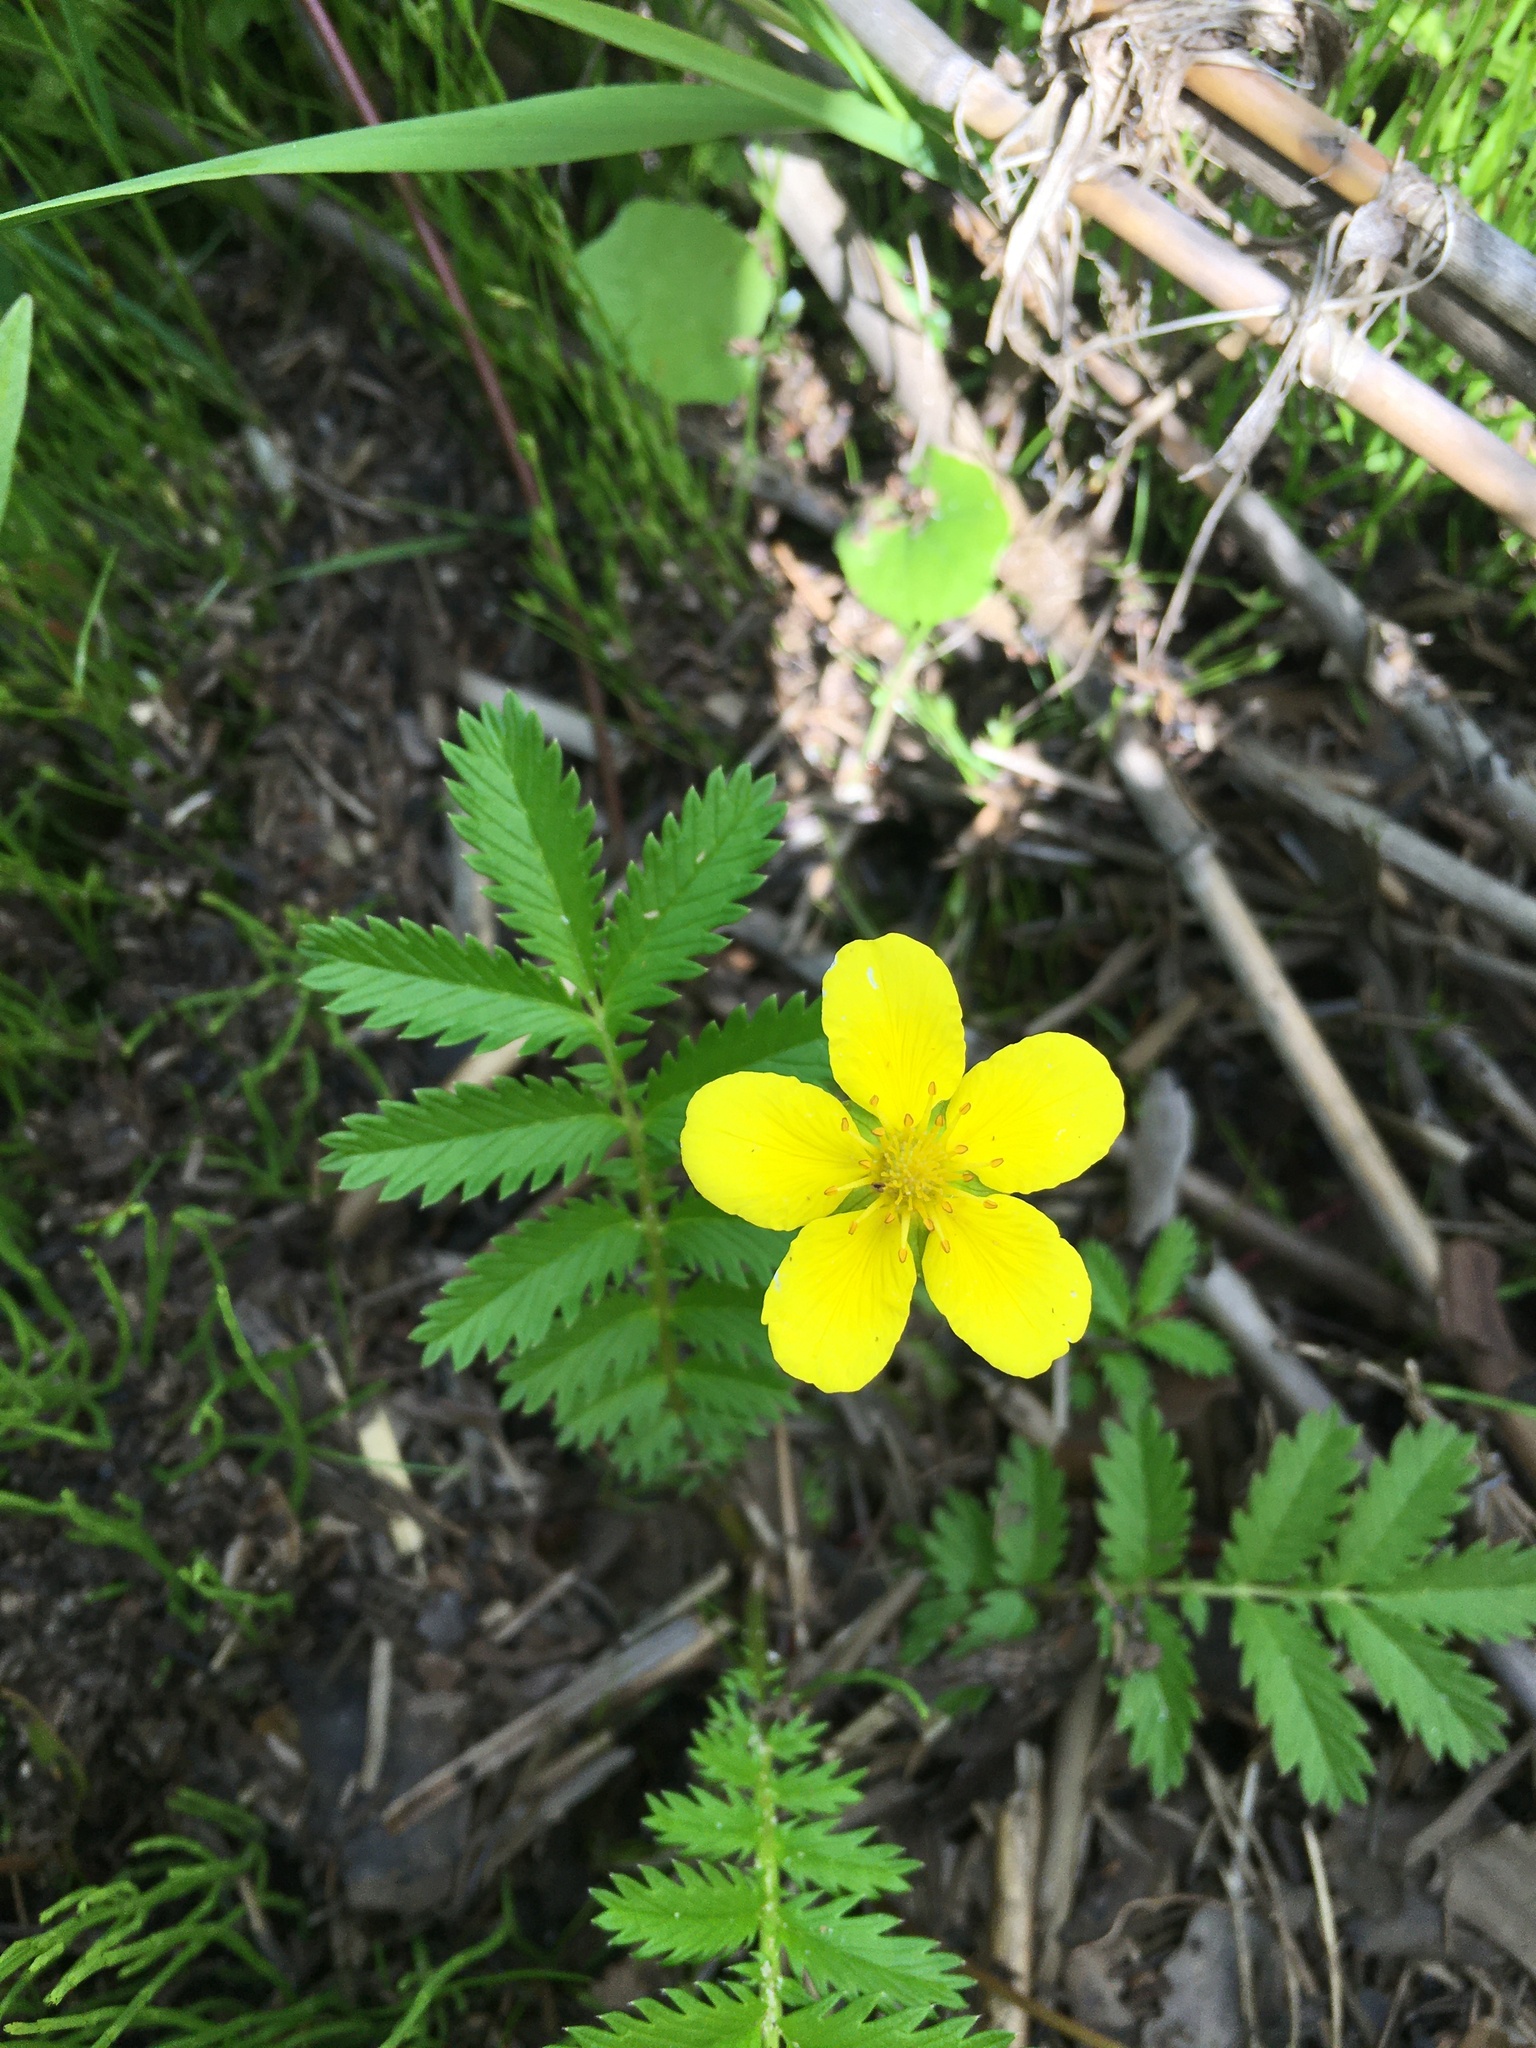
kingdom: Plantae
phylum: Tracheophyta
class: Magnoliopsida
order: Rosales
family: Rosaceae
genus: Argentina
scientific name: Argentina anserina
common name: Common silverweed
